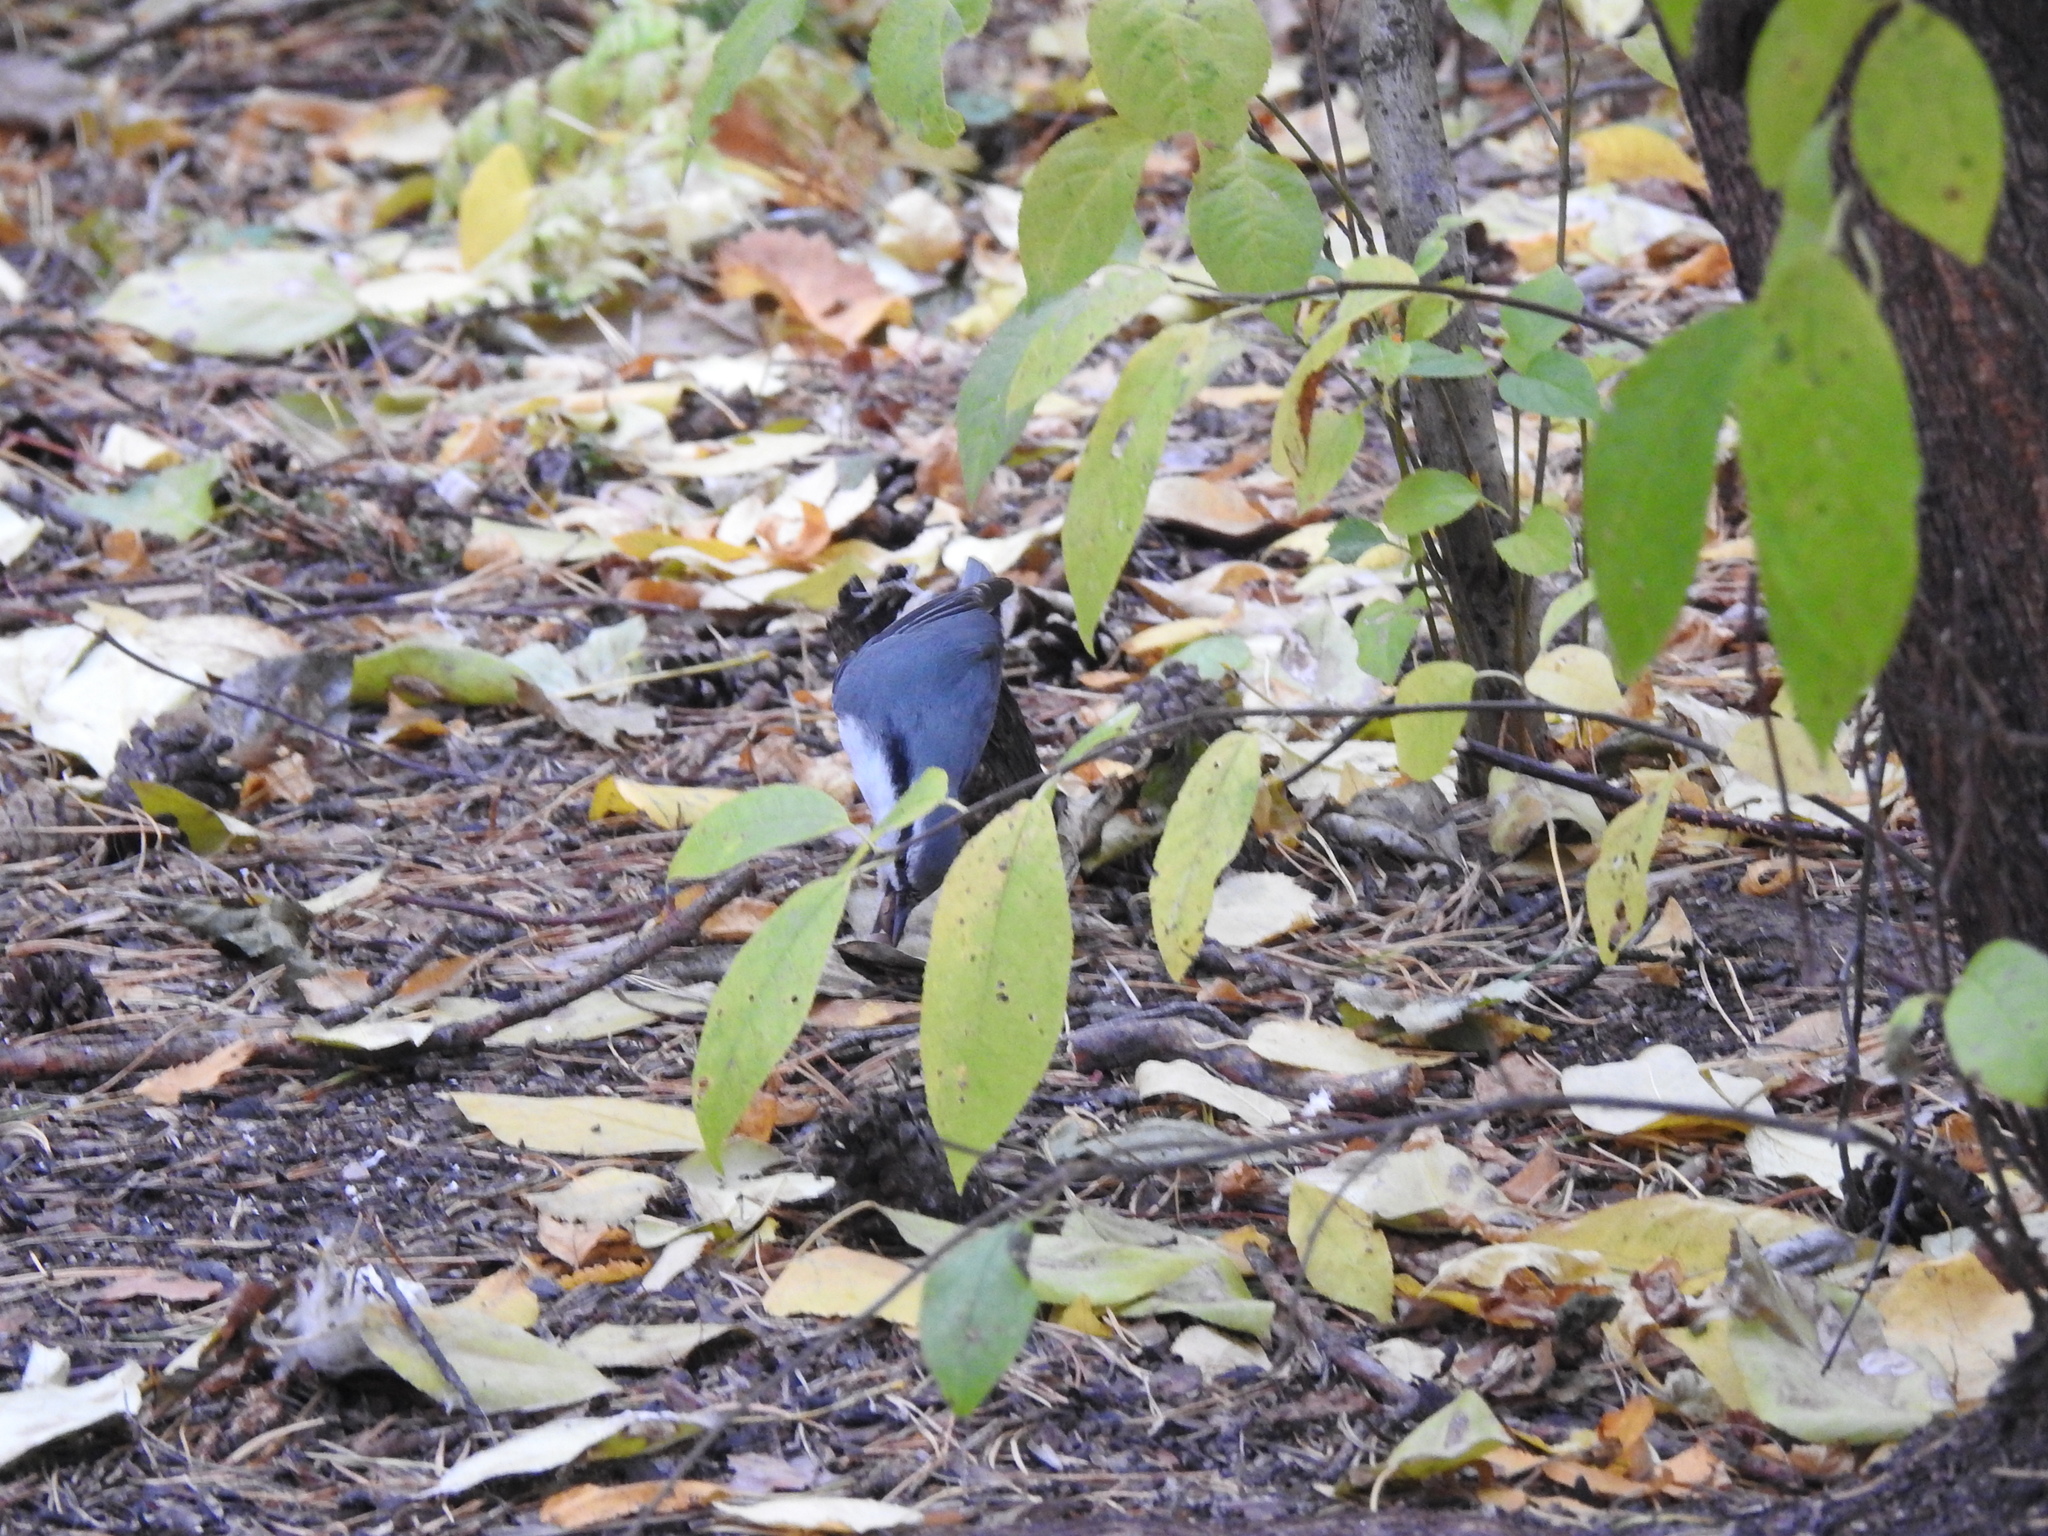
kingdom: Animalia
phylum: Chordata
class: Aves
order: Passeriformes
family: Sittidae
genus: Sitta
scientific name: Sitta europaea
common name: Eurasian nuthatch
